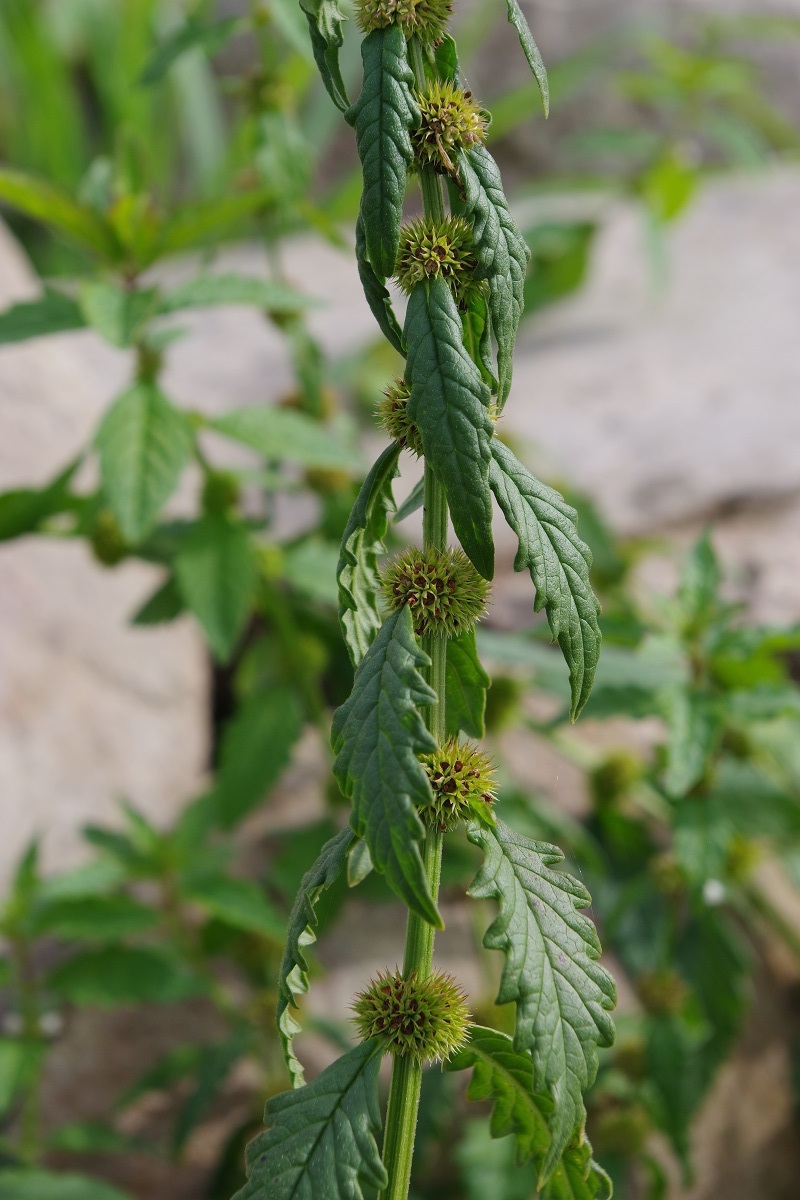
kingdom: Plantae
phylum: Tracheophyta
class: Magnoliopsida
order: Lamiales
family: Lamiaceae
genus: Lycopus
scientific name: Lycopus europaeus
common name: European bugleweed
